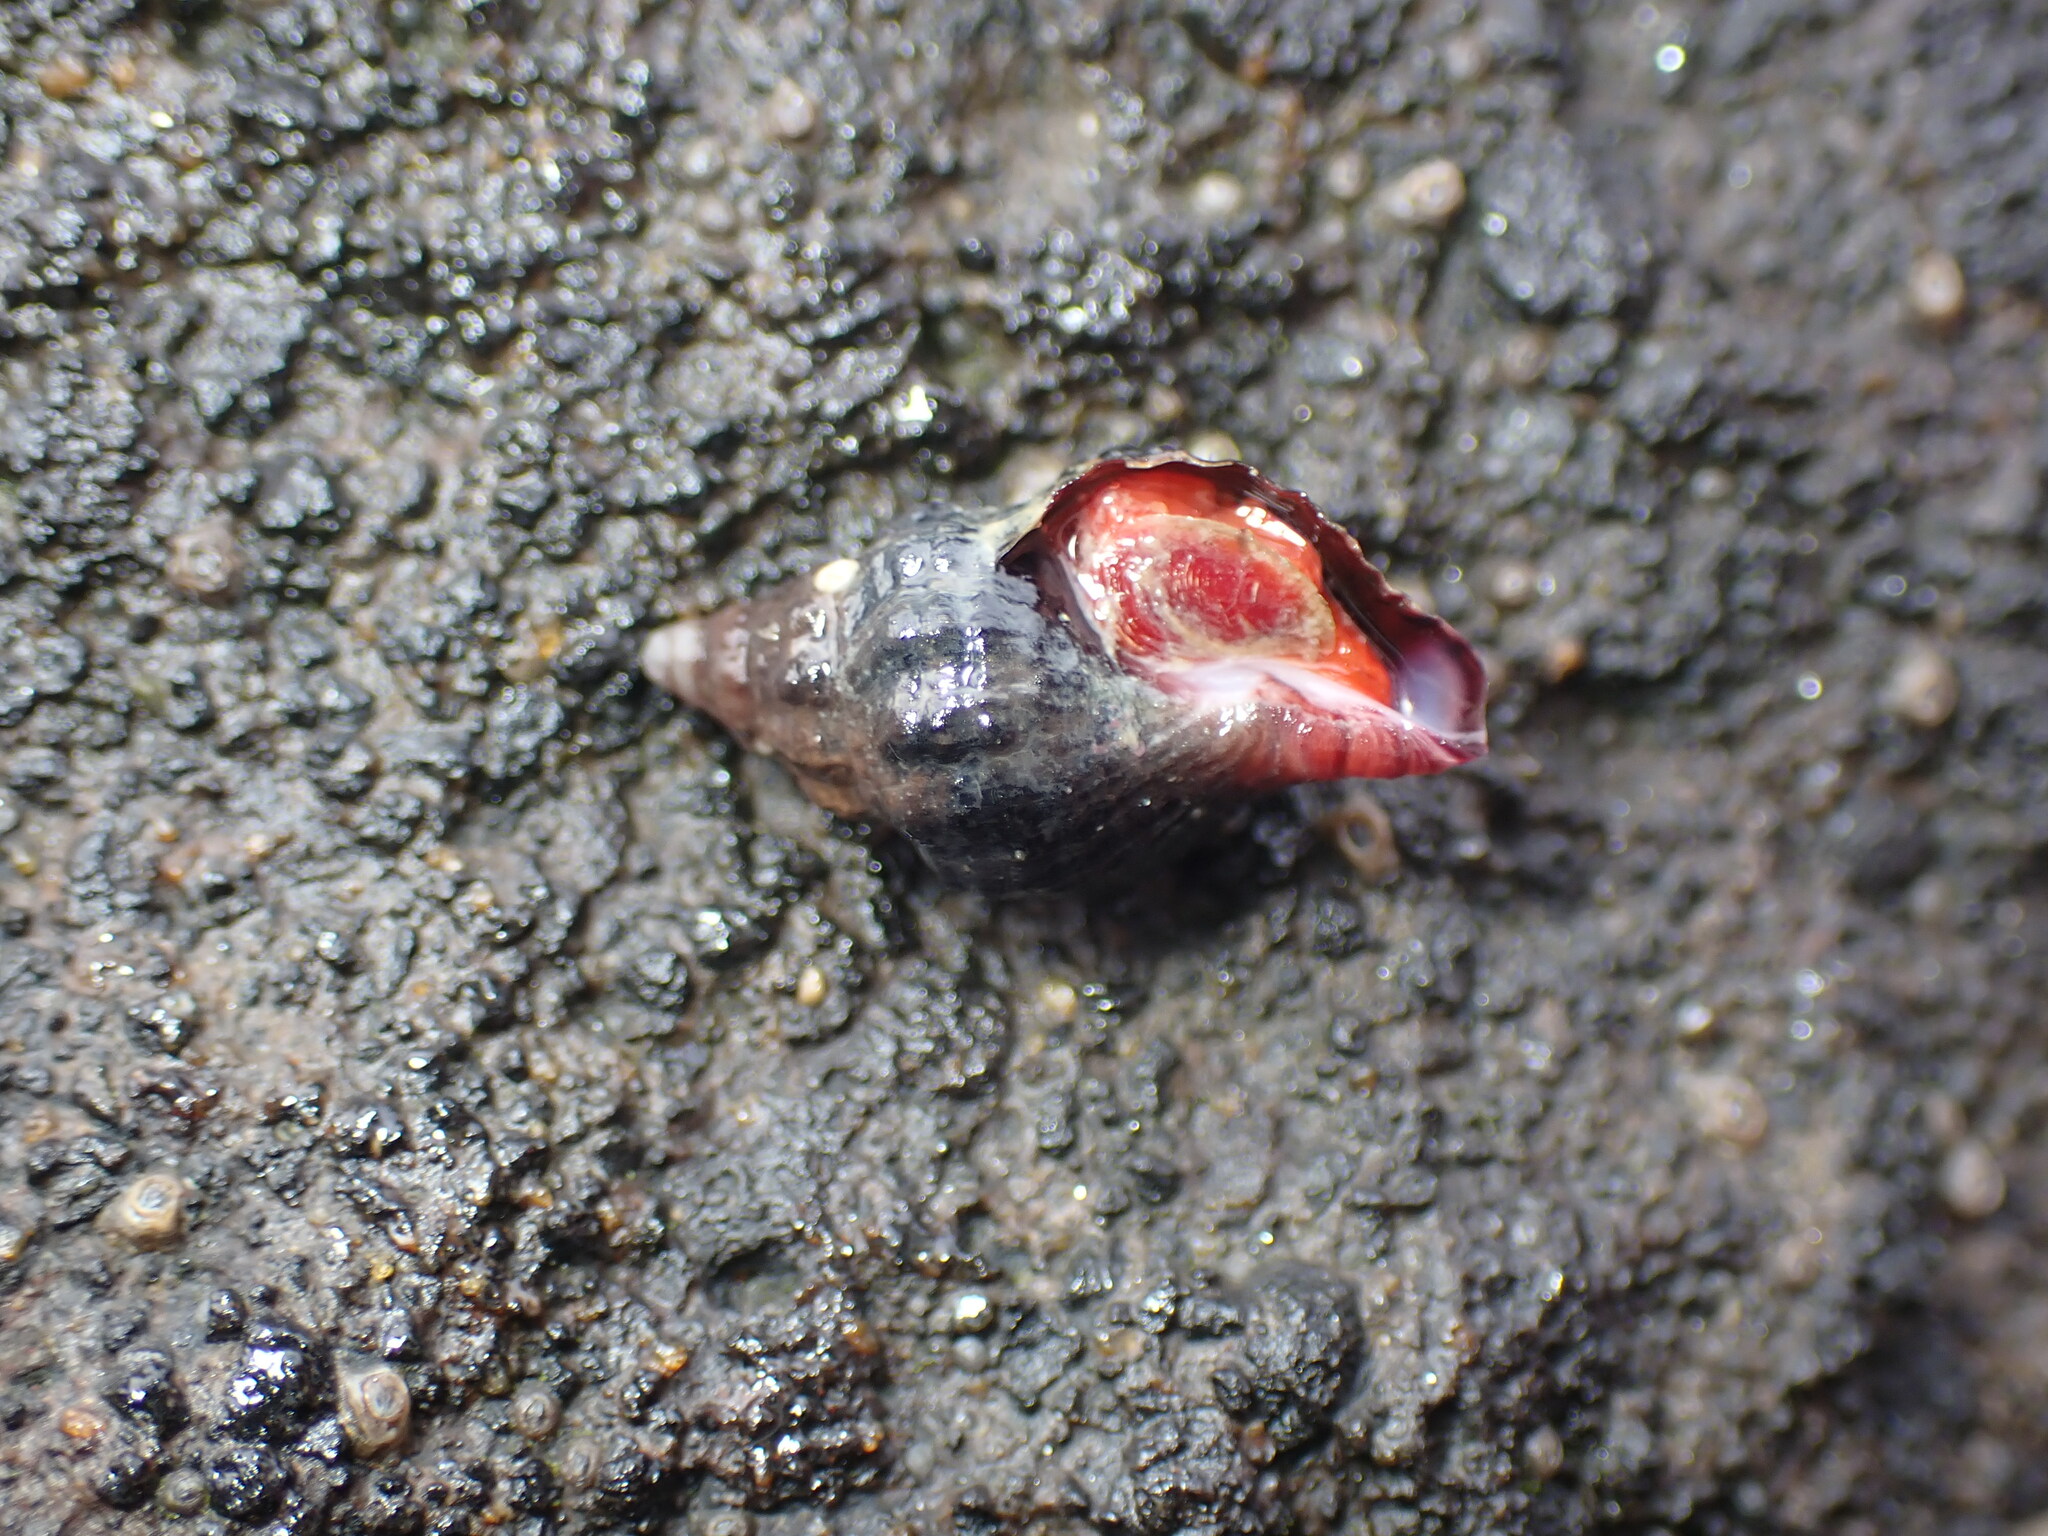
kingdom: Animalia
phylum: Mollusca
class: Gastropoda
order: Neogastropoda
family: Fasciolariidae
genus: Taron
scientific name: Taron dubius
